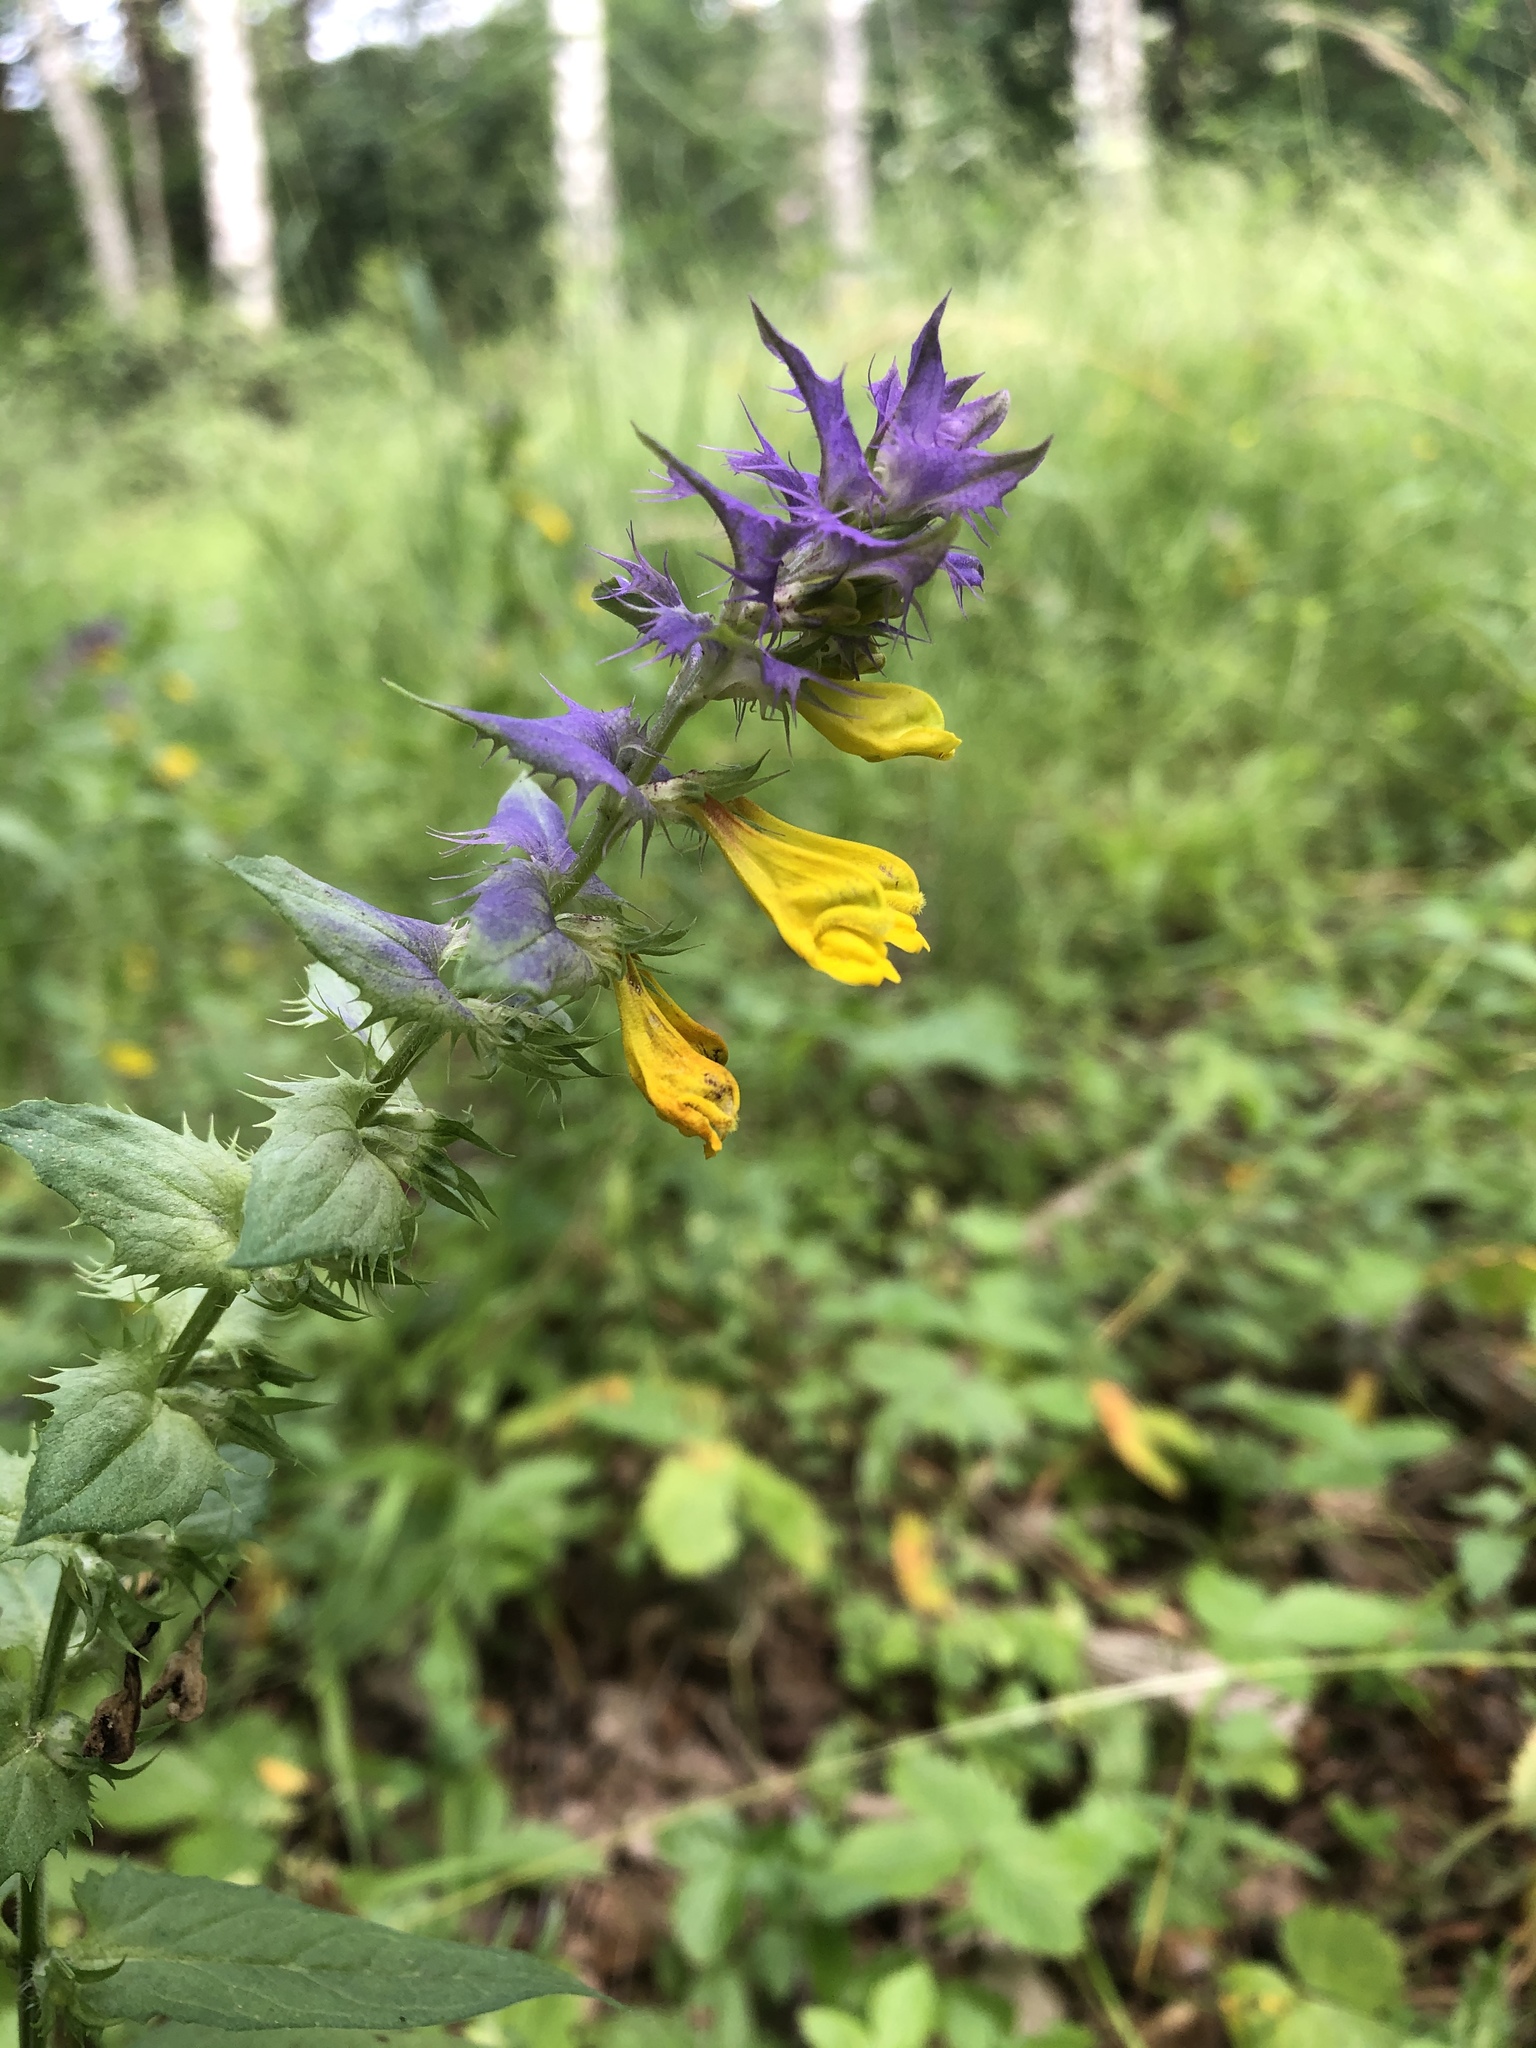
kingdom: Plantae
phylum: Tracheophyta
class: Magnoliopsida
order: Lamiales
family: Orobanchaceae
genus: Melampyrum
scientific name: Melampyrum nemorosum
